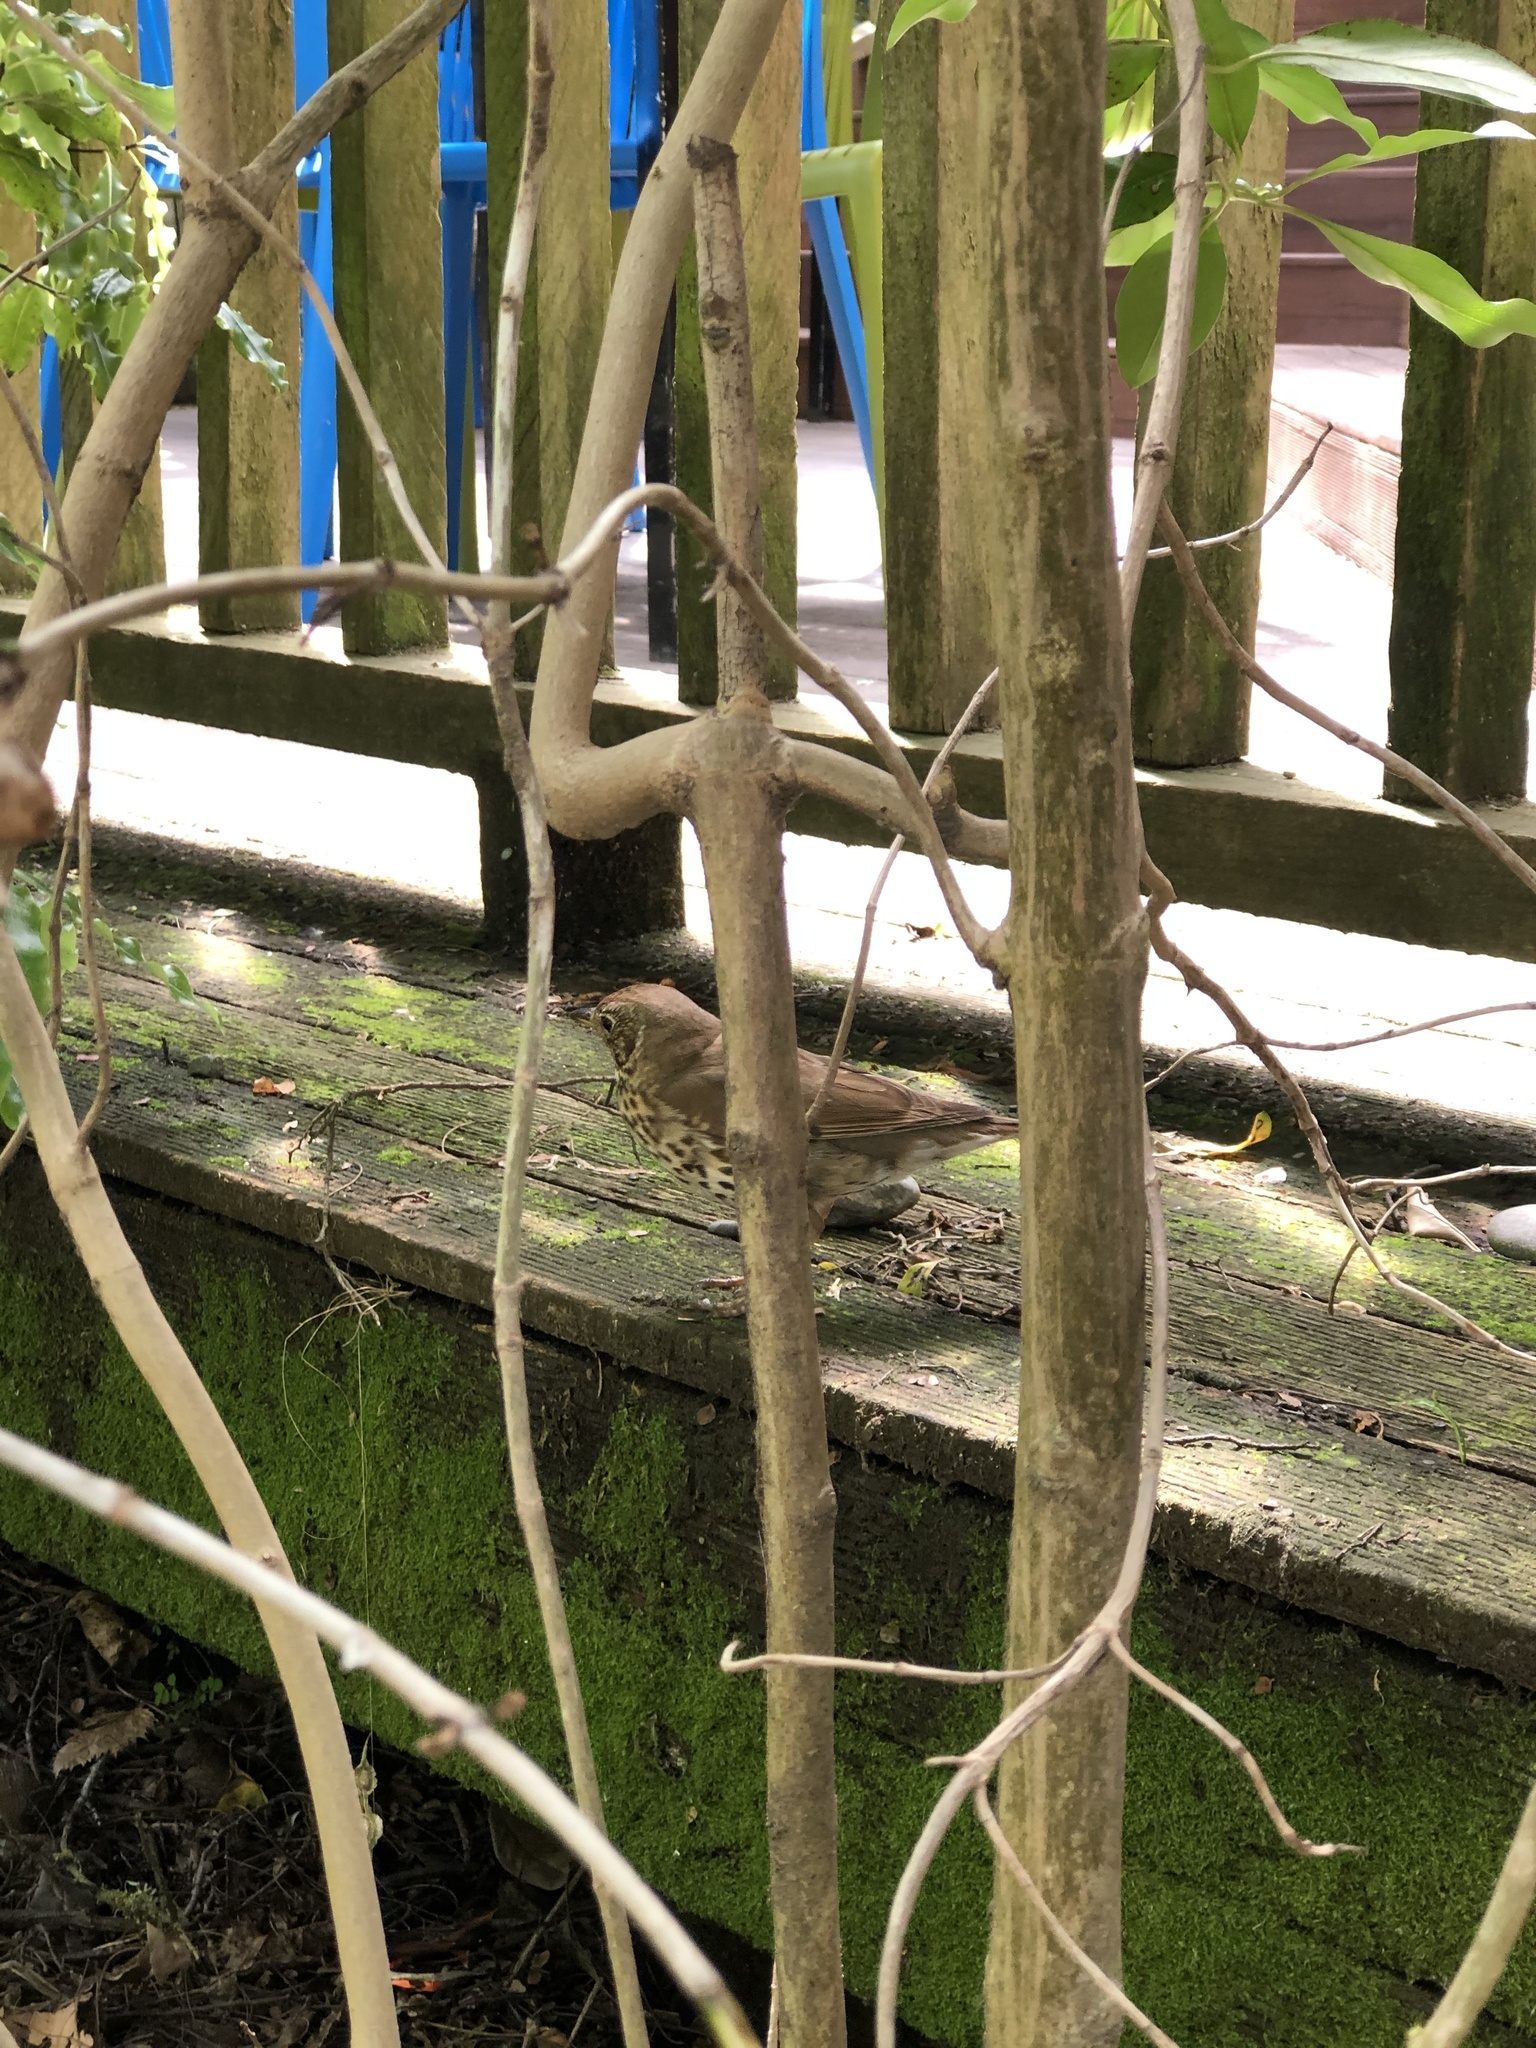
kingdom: Animalia
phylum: Chordata
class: Aves
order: Passeriformes
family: Turdidae
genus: Turdus
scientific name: Turdus philomelos
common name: Song thrush
